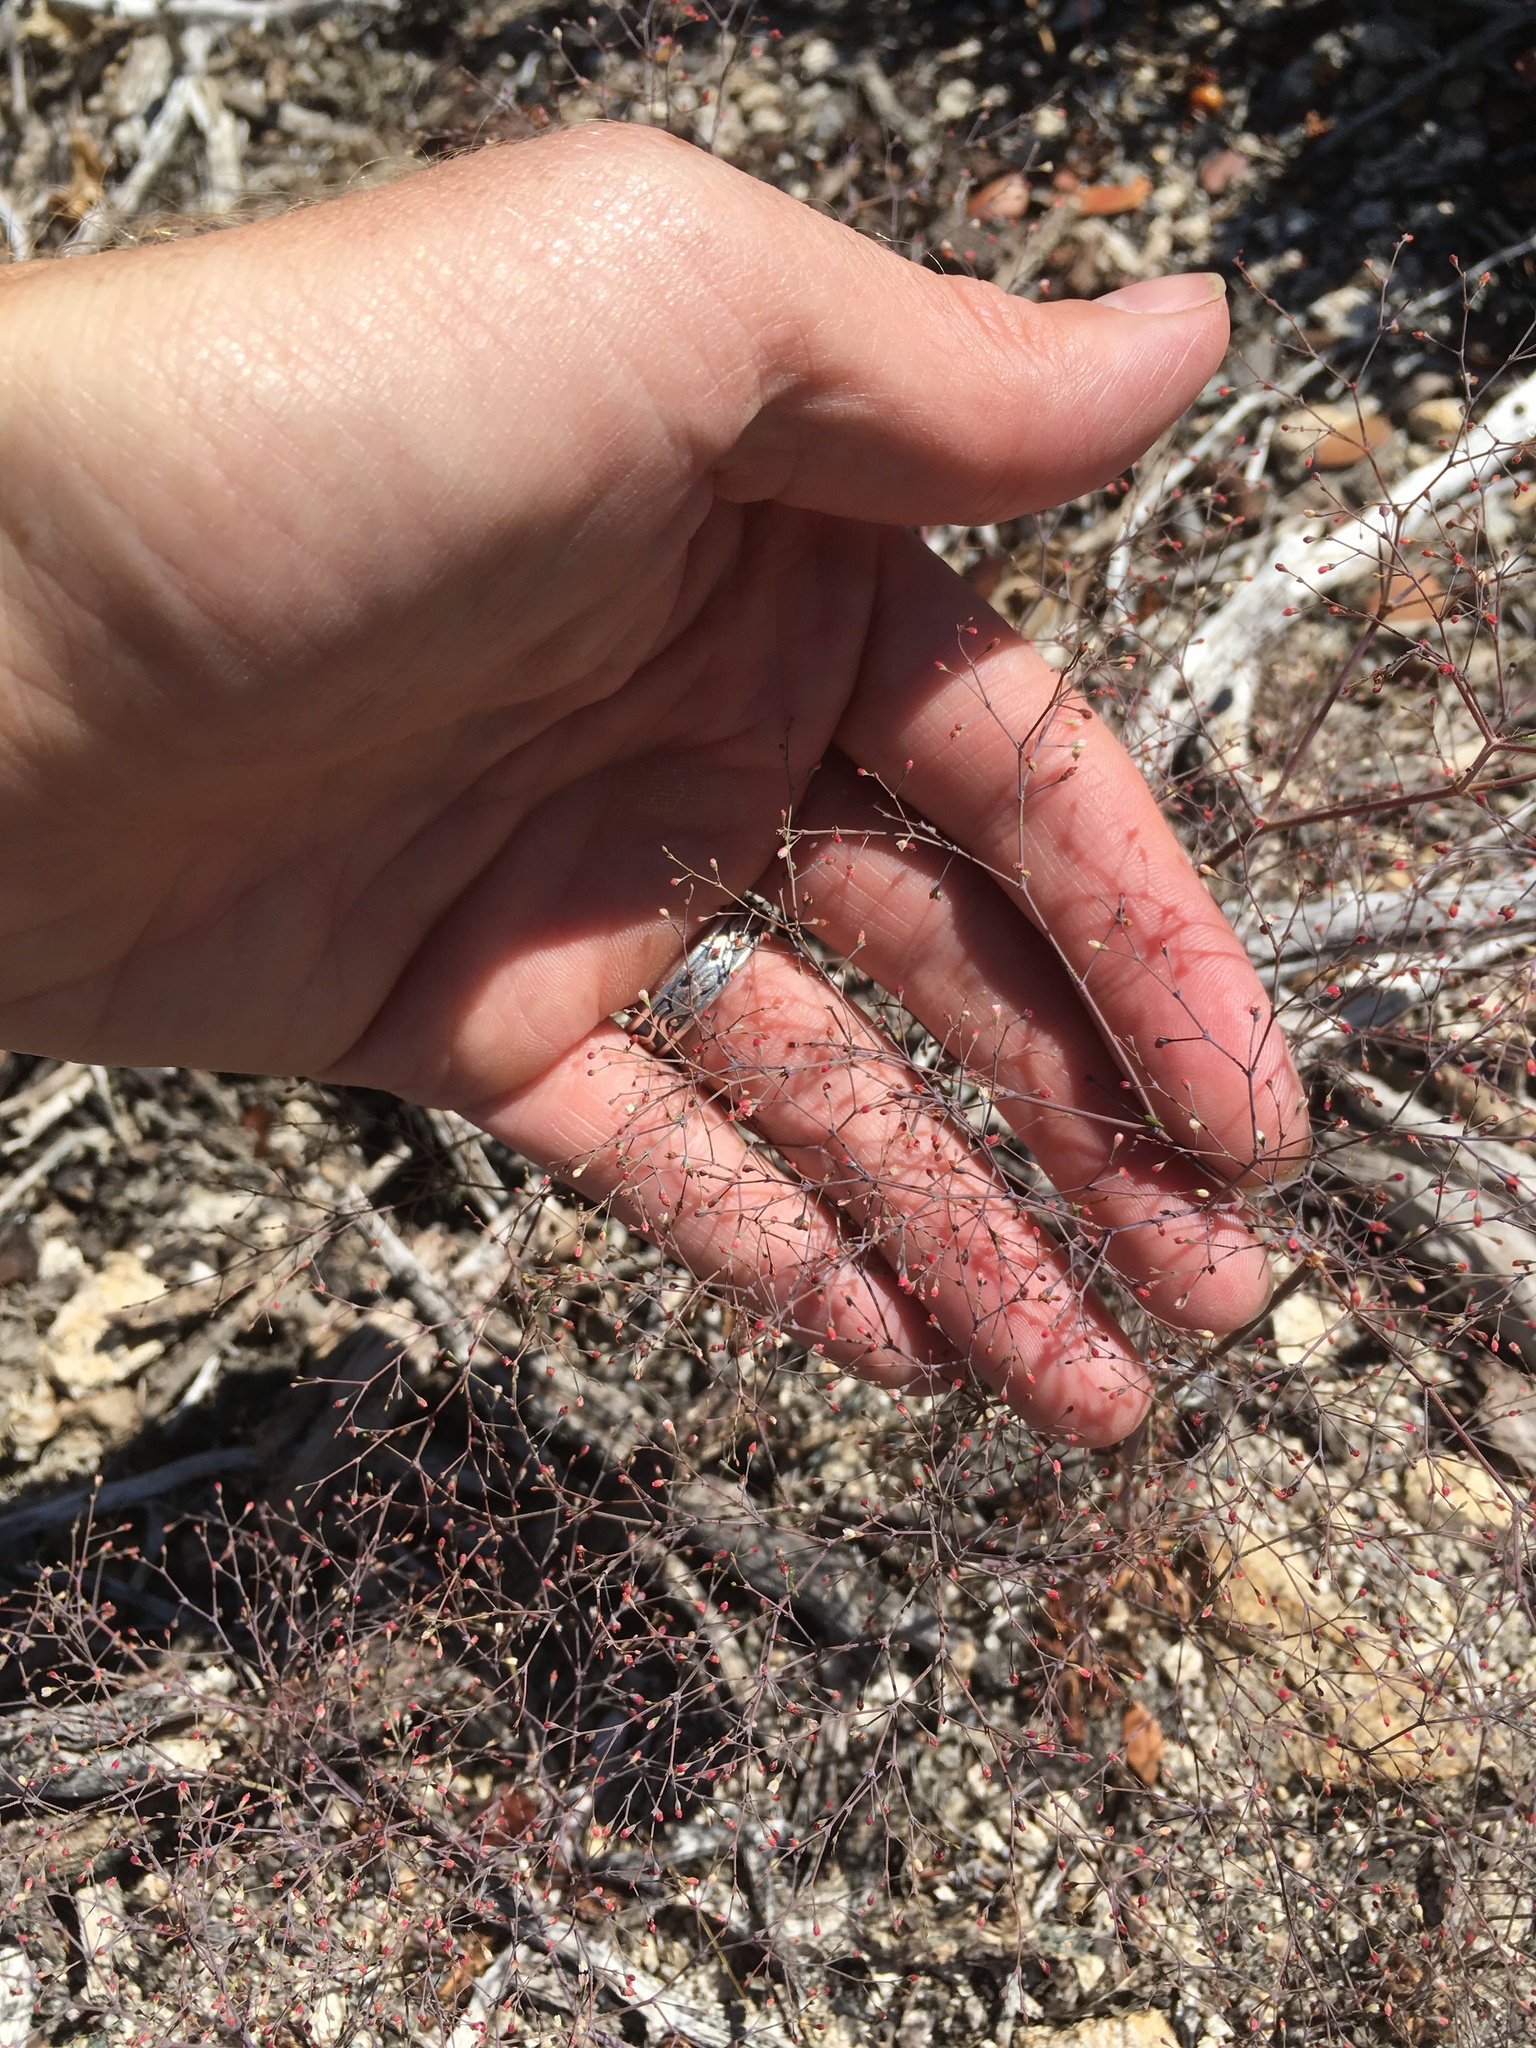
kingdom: Plantae
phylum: Tracheophyta
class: Magnoliopsida
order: Caryophyllales
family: Polygonaceae
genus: Eriogonum
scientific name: Eriogonum parishii
